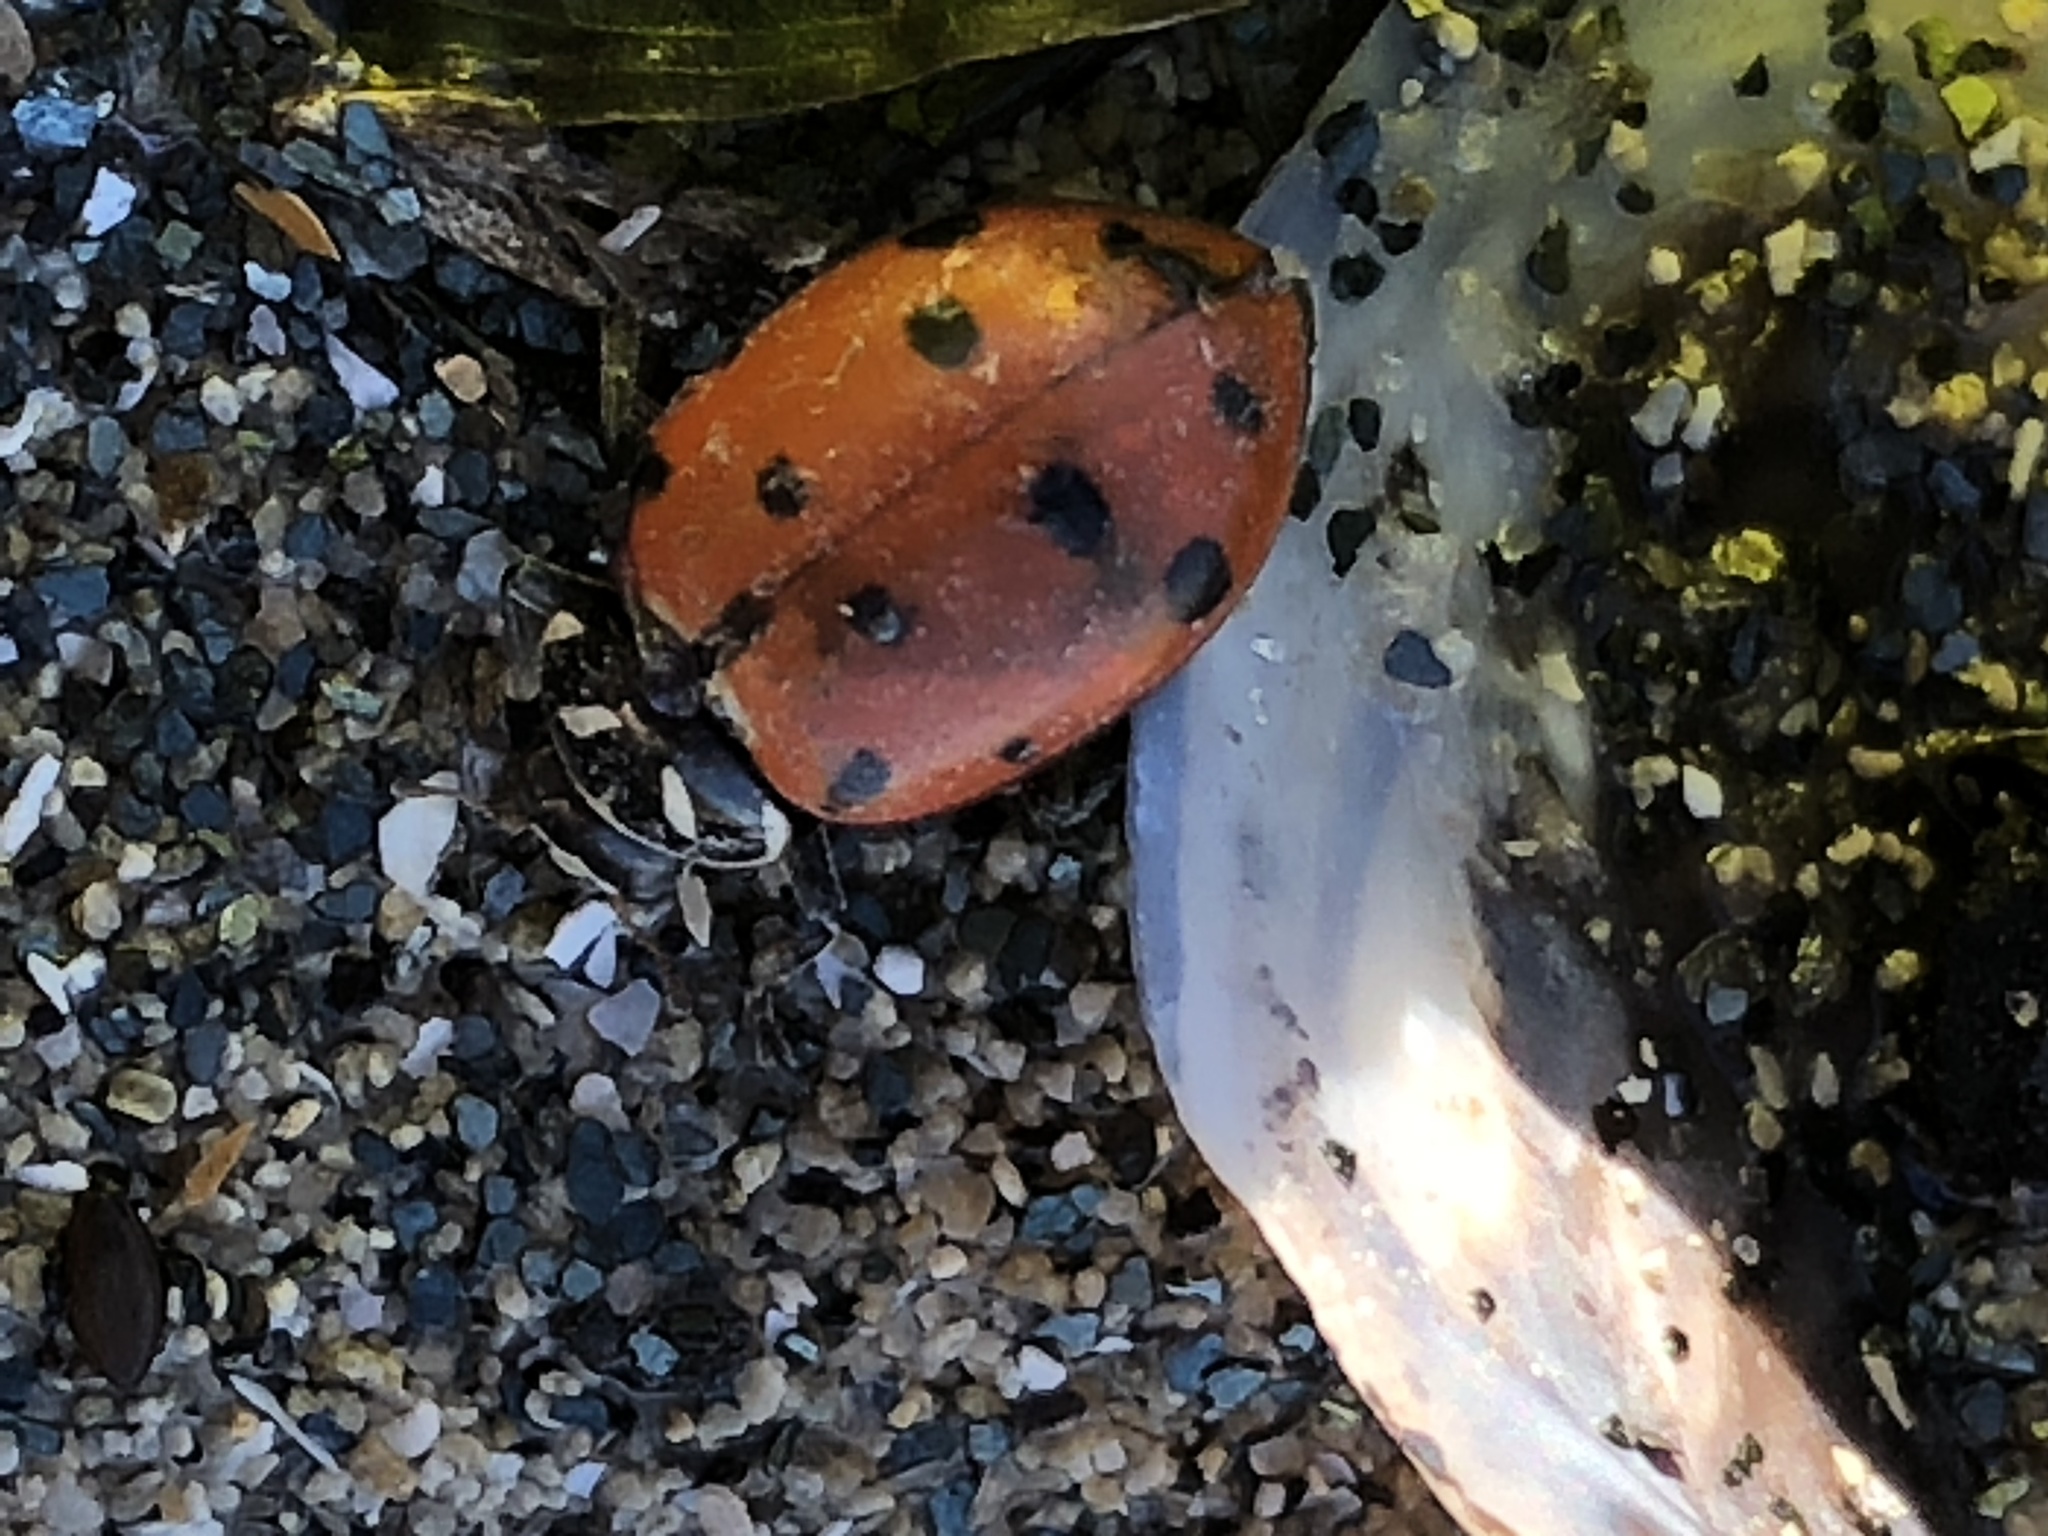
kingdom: Animalia
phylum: Arthropoda
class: Insecta
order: Coleoptera
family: Coccinellidae
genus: Hippodamia
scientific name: Hippodamia convergens
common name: Convergent lady beetle
